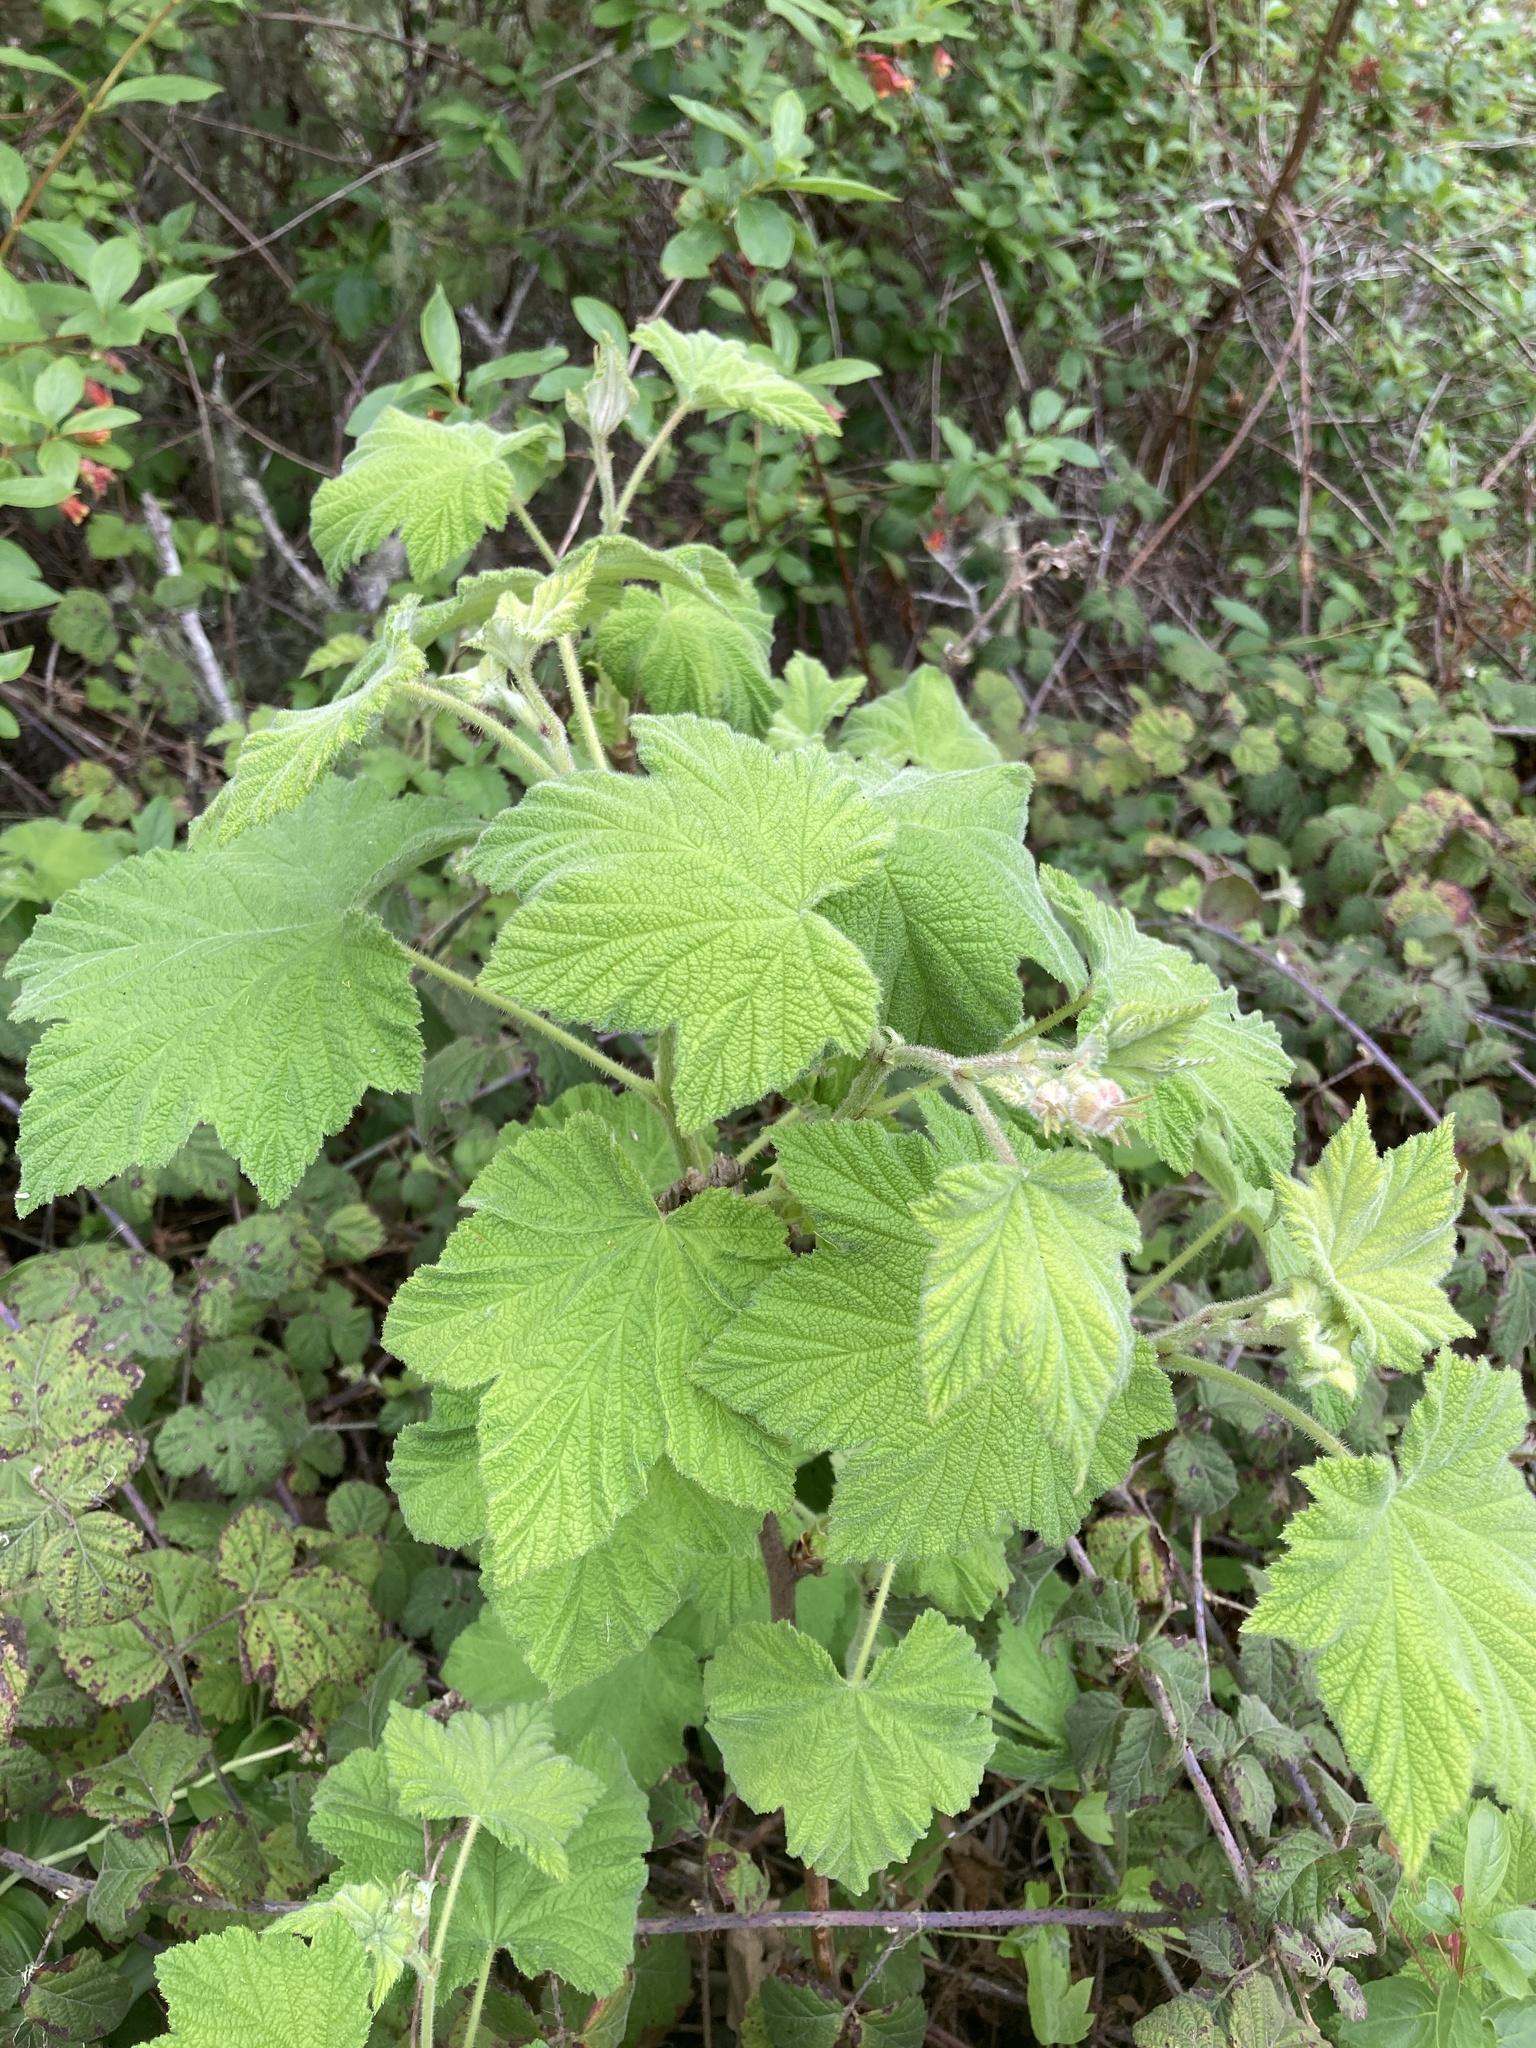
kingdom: Plantae
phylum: Tracheophyta
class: Magnoliopsida
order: Rosales
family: Rosaceae
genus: Rubus
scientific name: Rubus parviflorus
